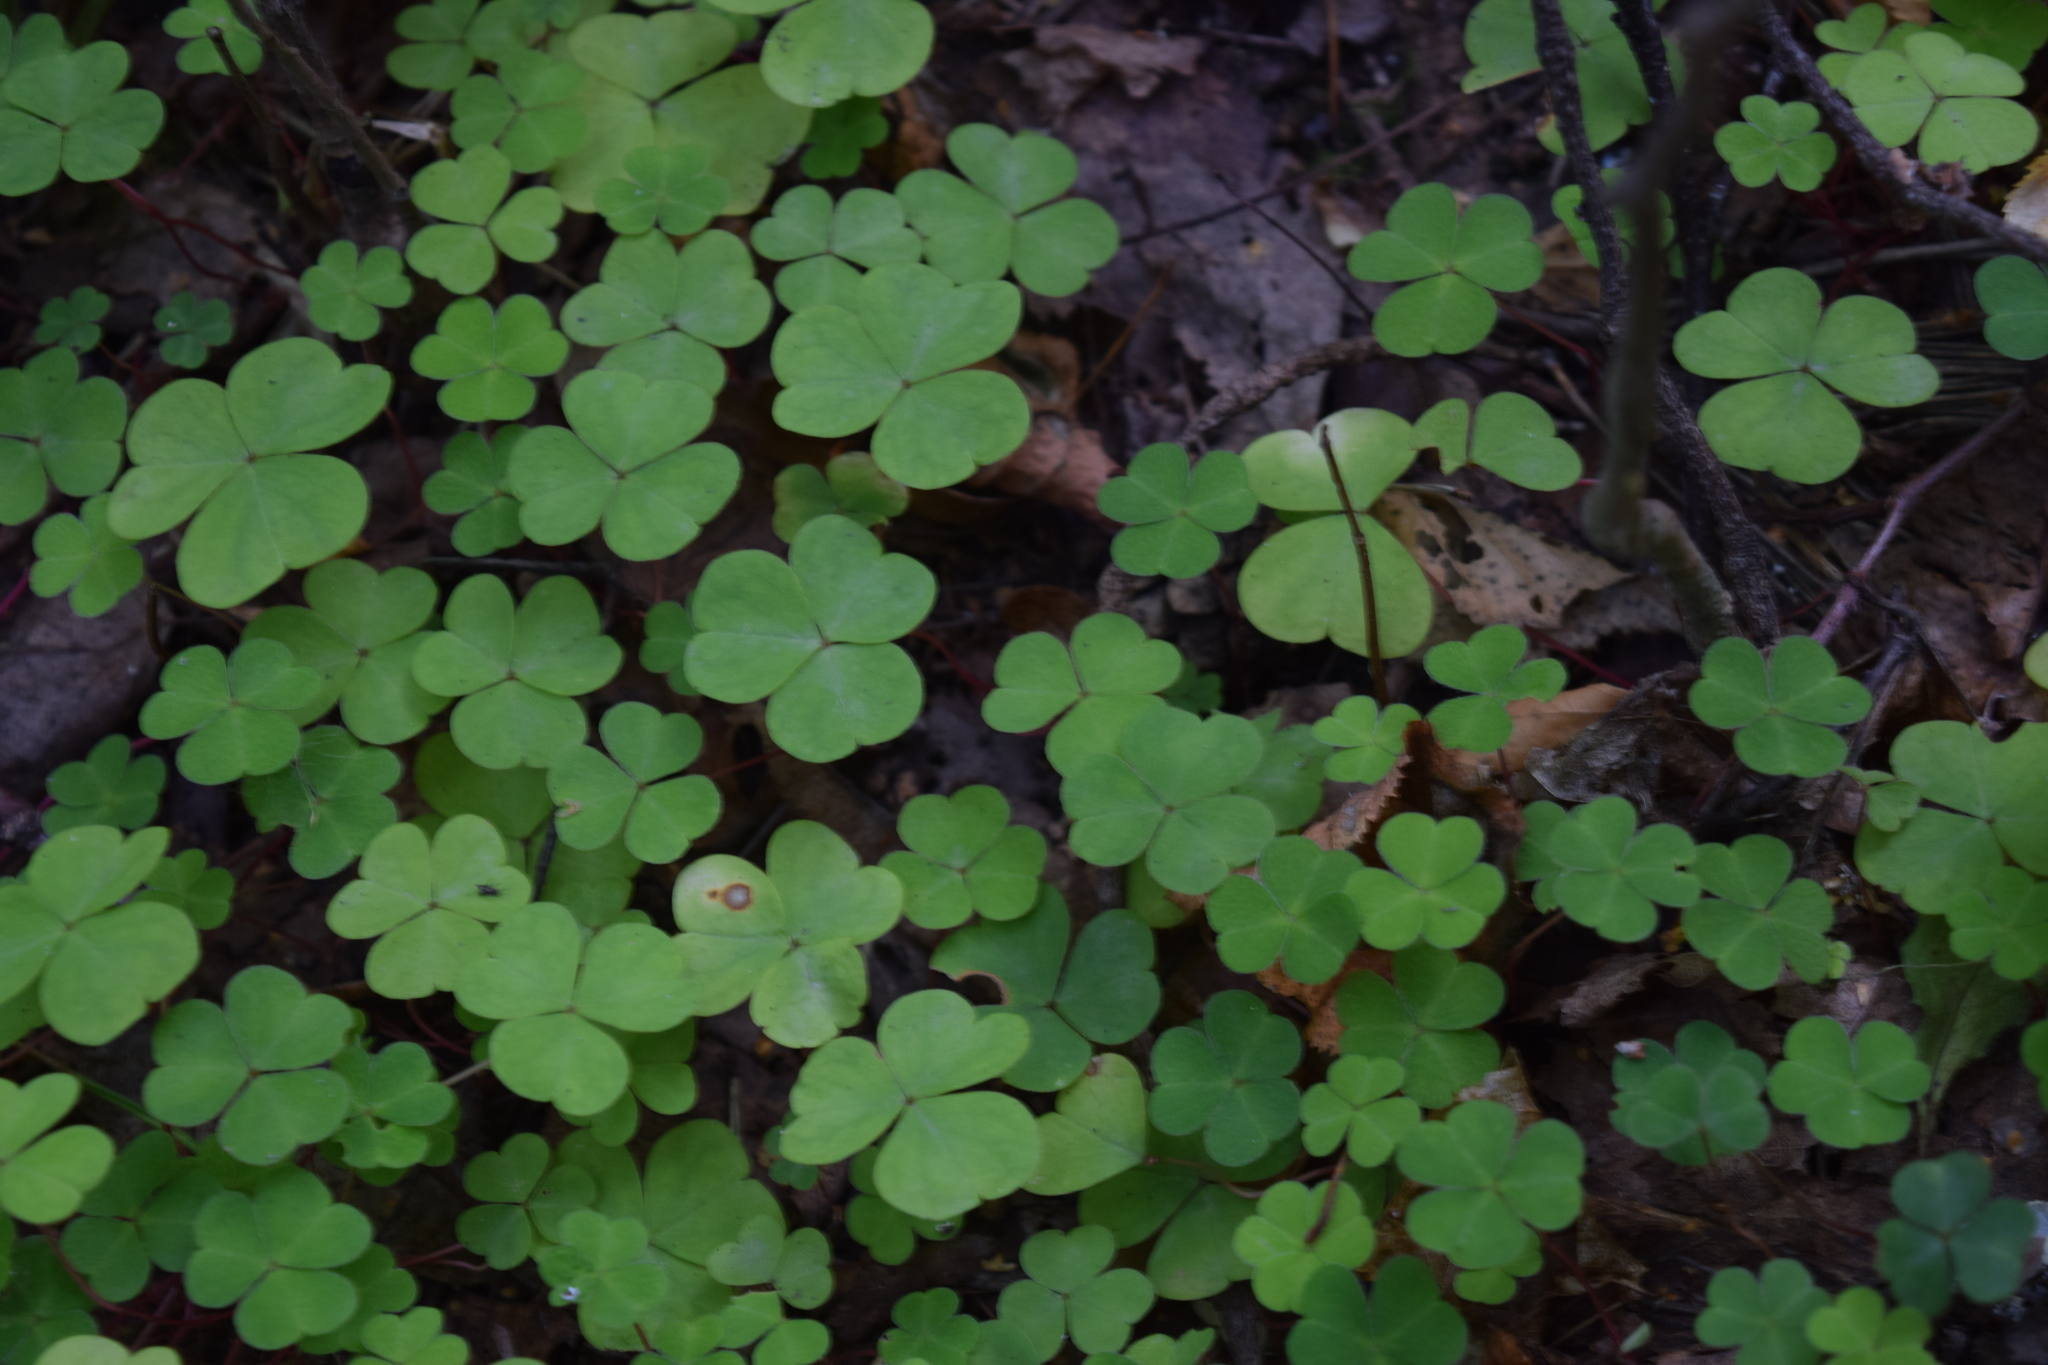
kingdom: Plantae
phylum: Tracheophyta
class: Magnoliopsida
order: Oxalidales
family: Oxalidaceae
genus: Oxalis
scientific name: Oxalis acetosella
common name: Wood-sorrel
